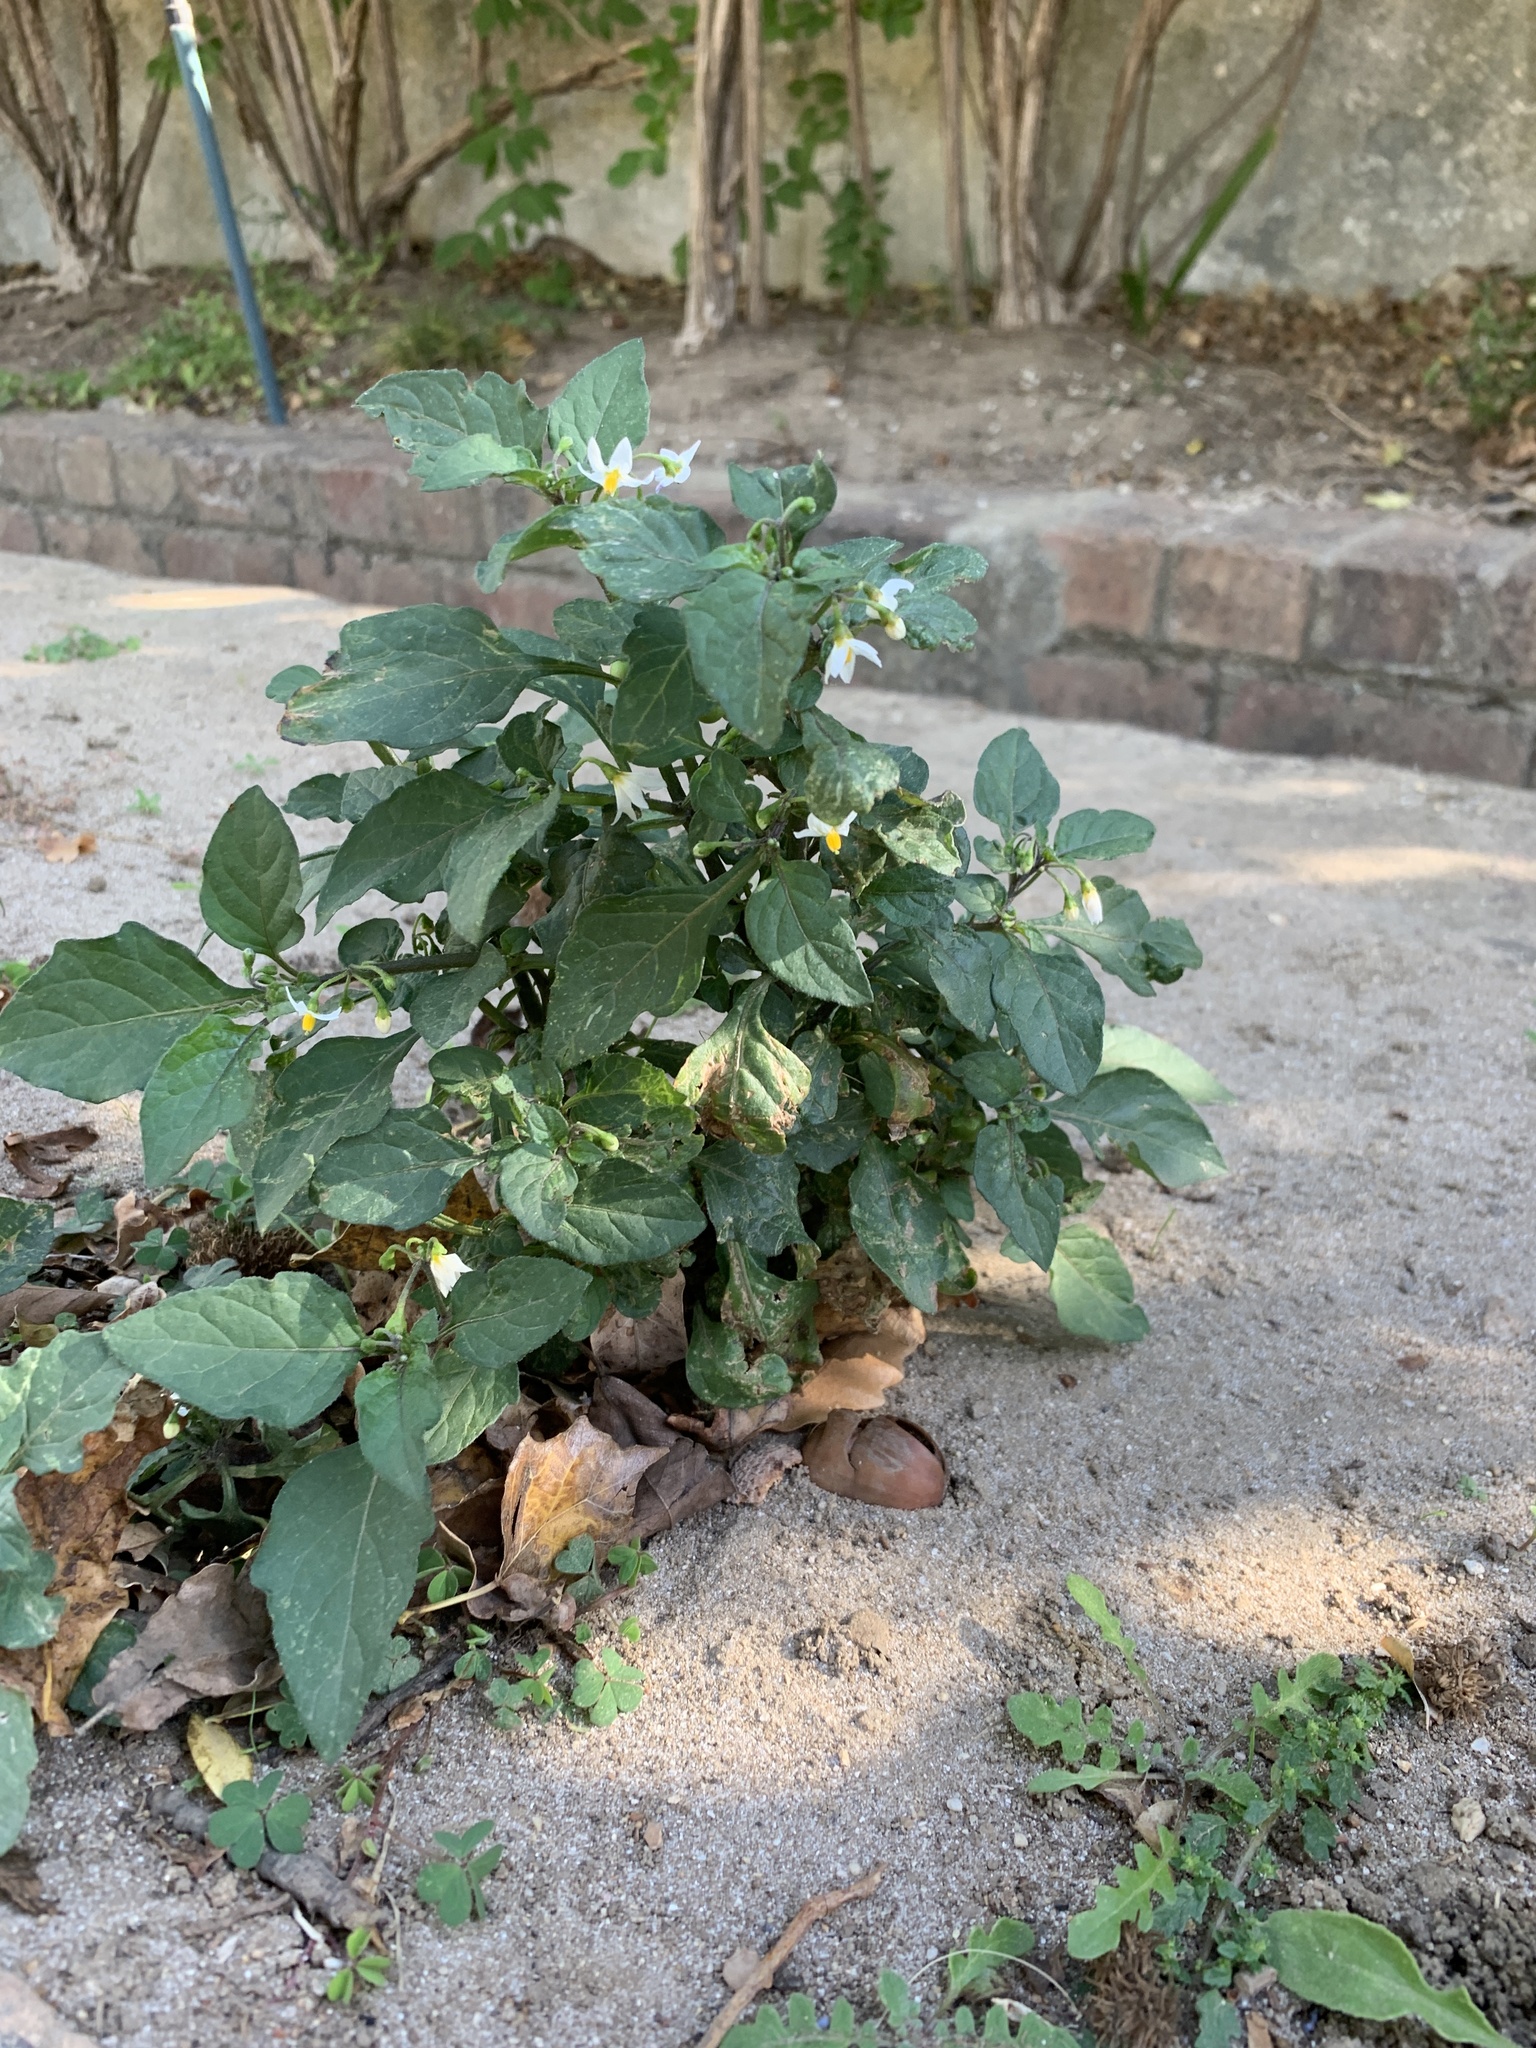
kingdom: Plantae
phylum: Tracheophyta
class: Magnoliopsida
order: Solanales
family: Solanaceae
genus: Solanum
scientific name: Solanum nigrum
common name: Black nightshade
